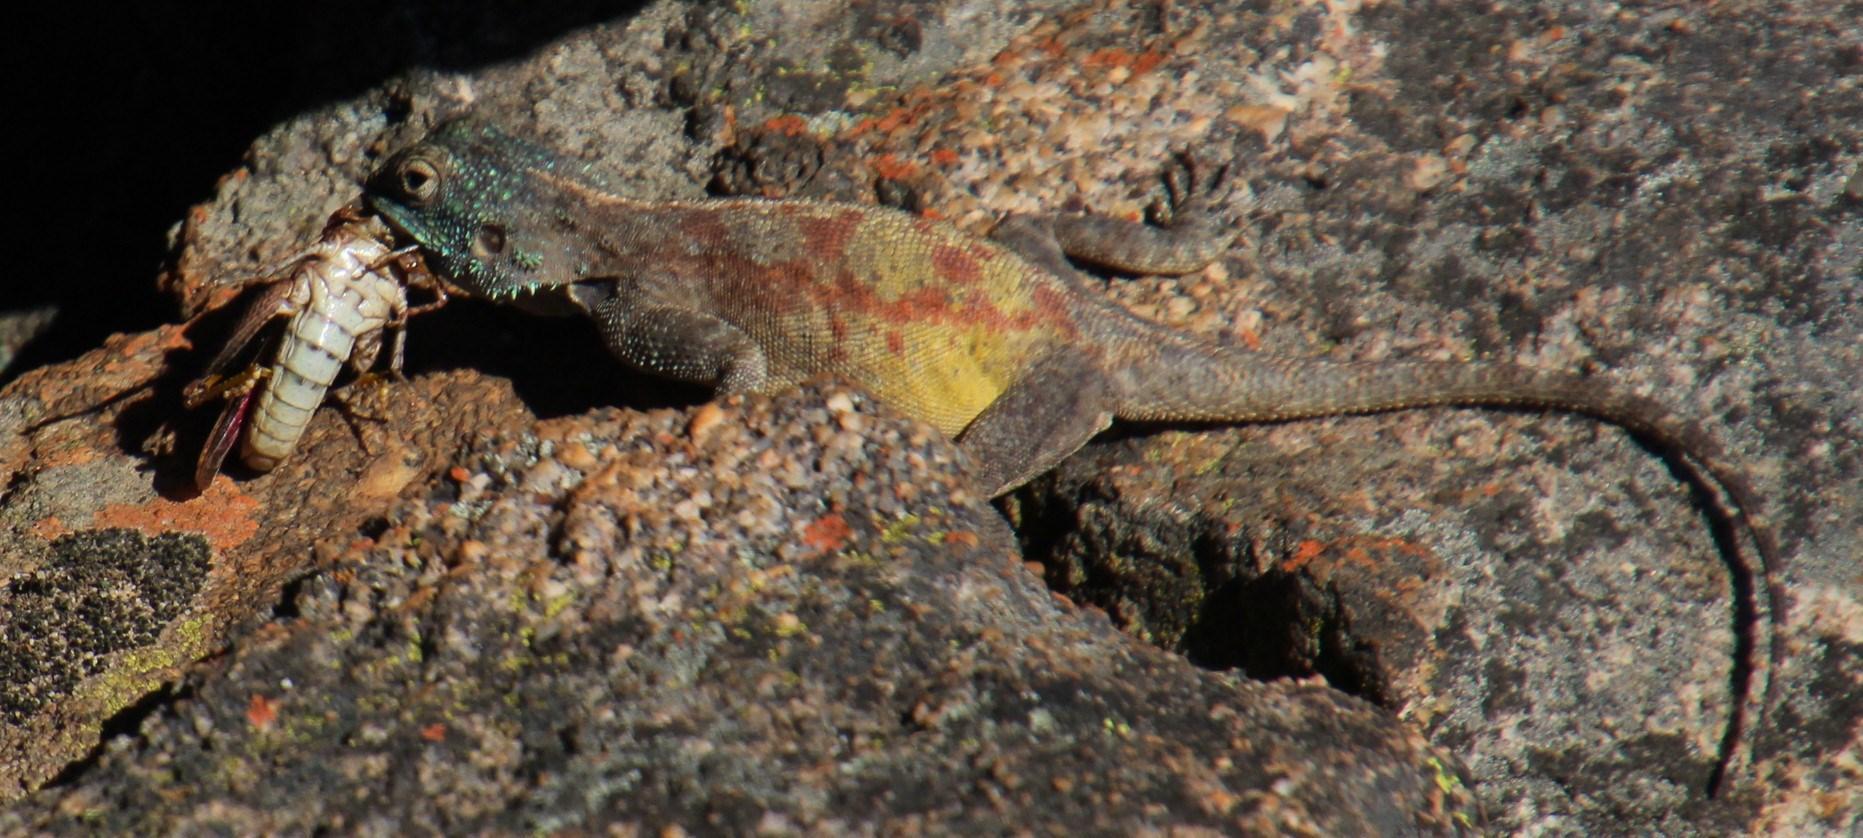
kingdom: Animalia
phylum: Chordata
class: Squamata
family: Agamidae
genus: Agama
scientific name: Agama atra
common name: Southern african rock agama
